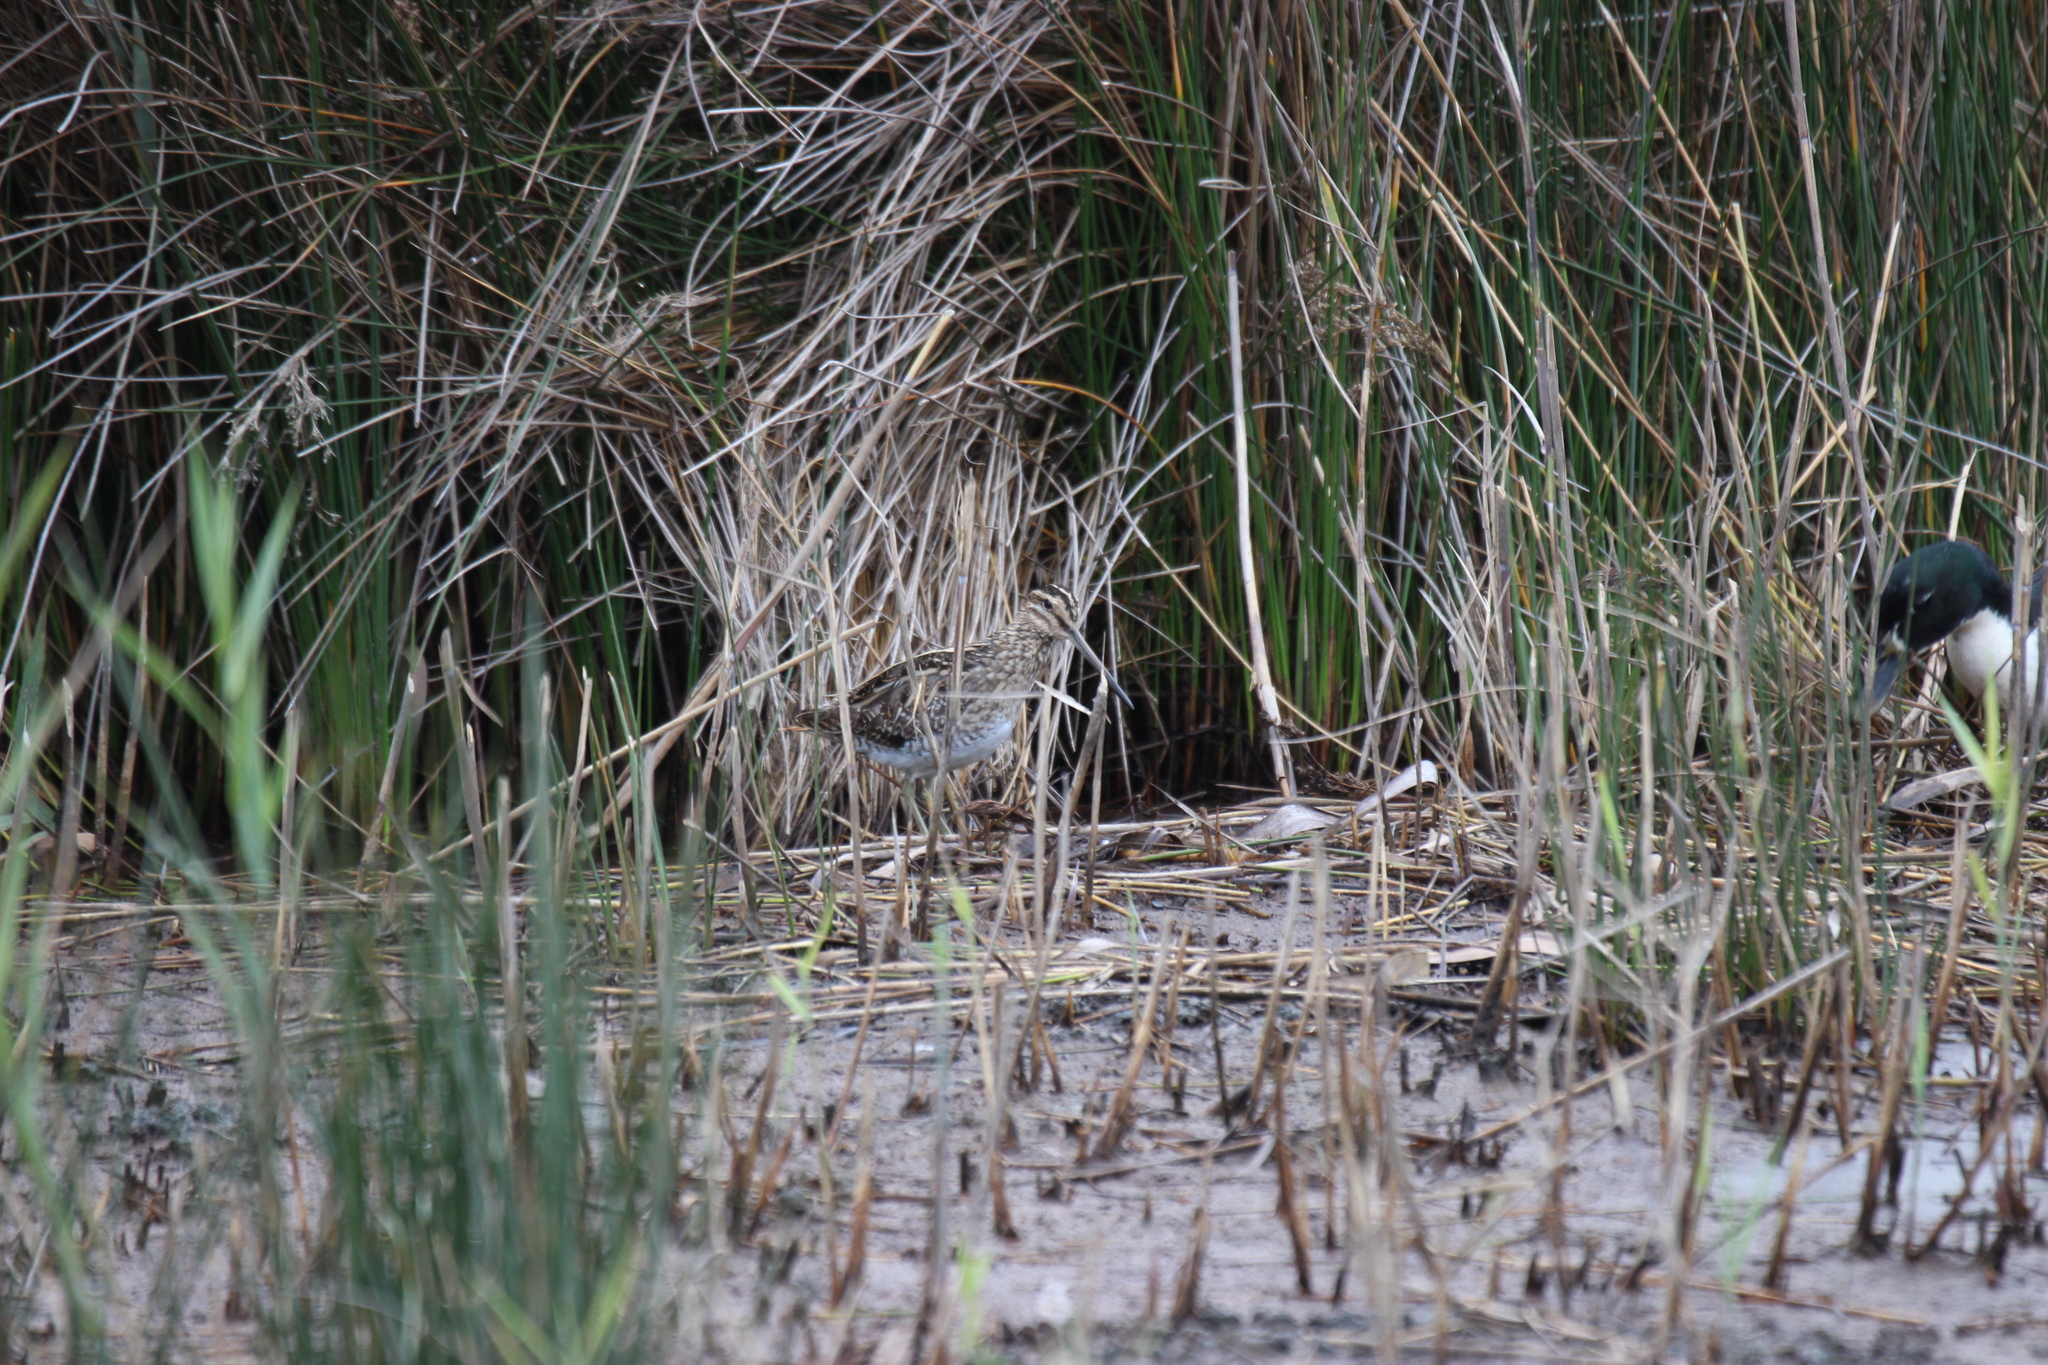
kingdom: Animalia
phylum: Chordata
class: Aves
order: Charadriiformes
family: Scolopacidae
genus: Gallinago
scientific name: Gallinago gallinago
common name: Common snipe
